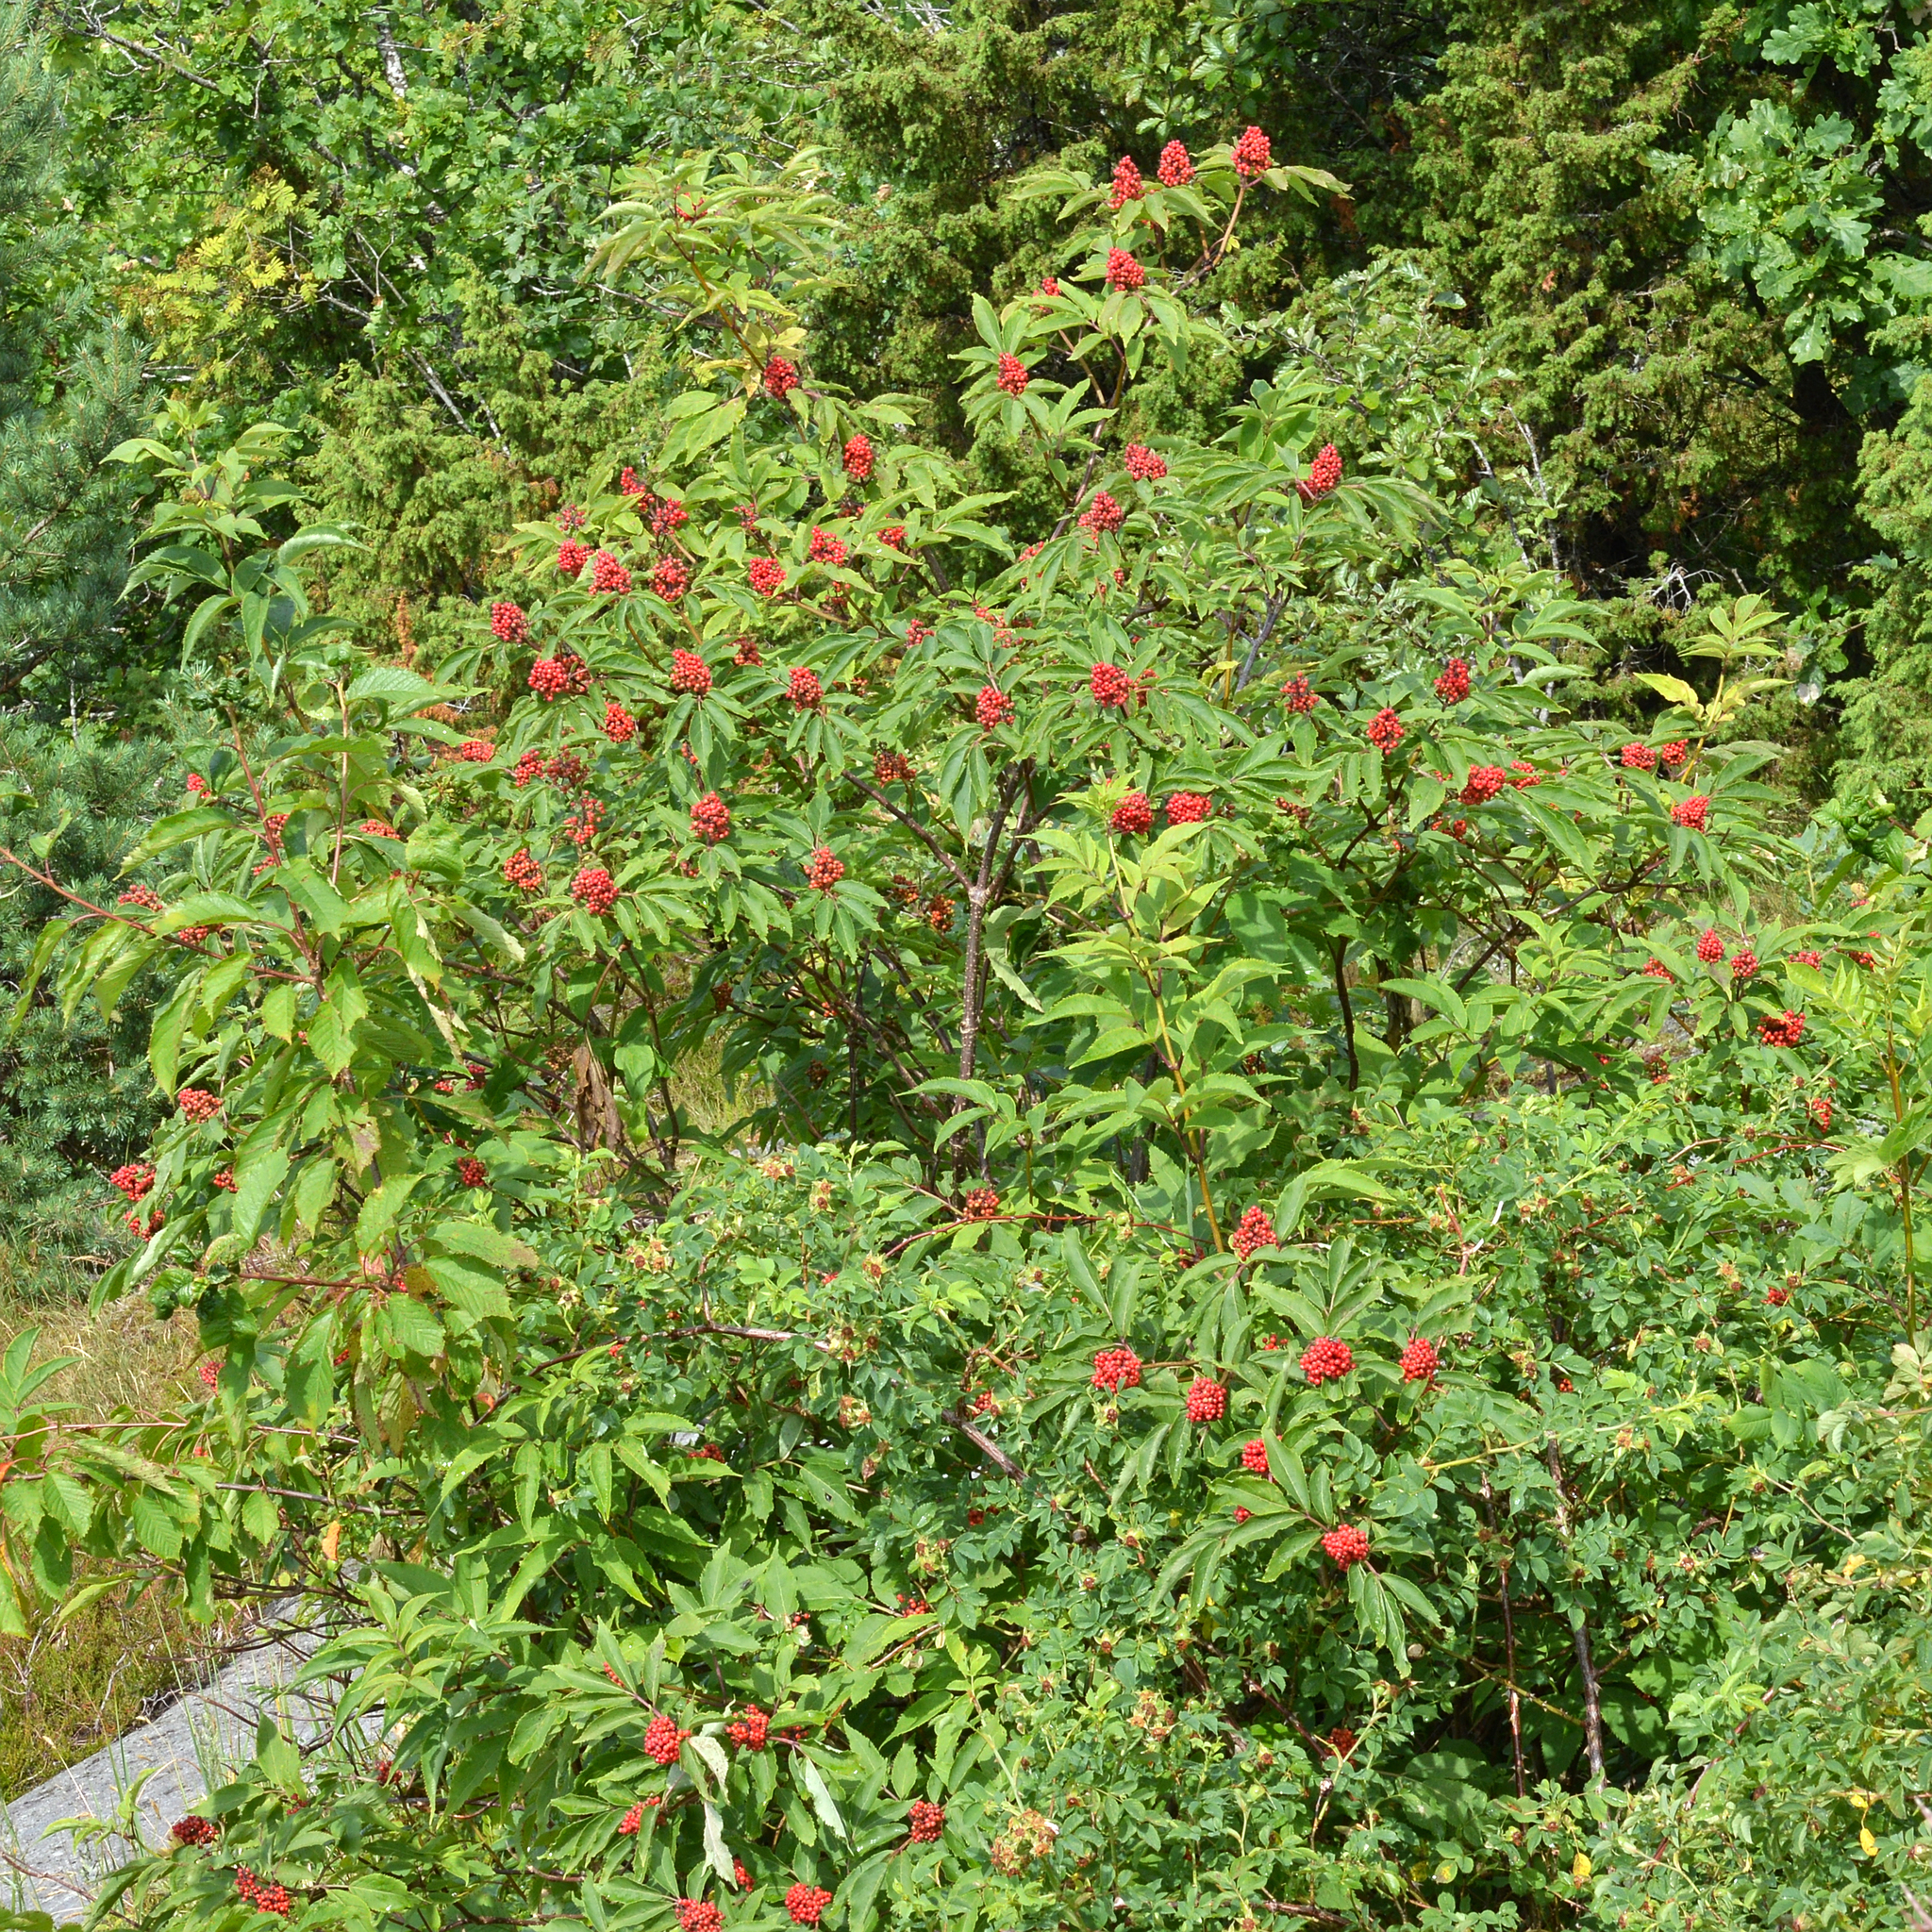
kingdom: Plantae
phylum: Tracheophyta
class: Magnoliopsida
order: Dipsacales
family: Viburnaceae
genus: Sambucus
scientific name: Sambucus racemosa
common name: Red-berried elder
